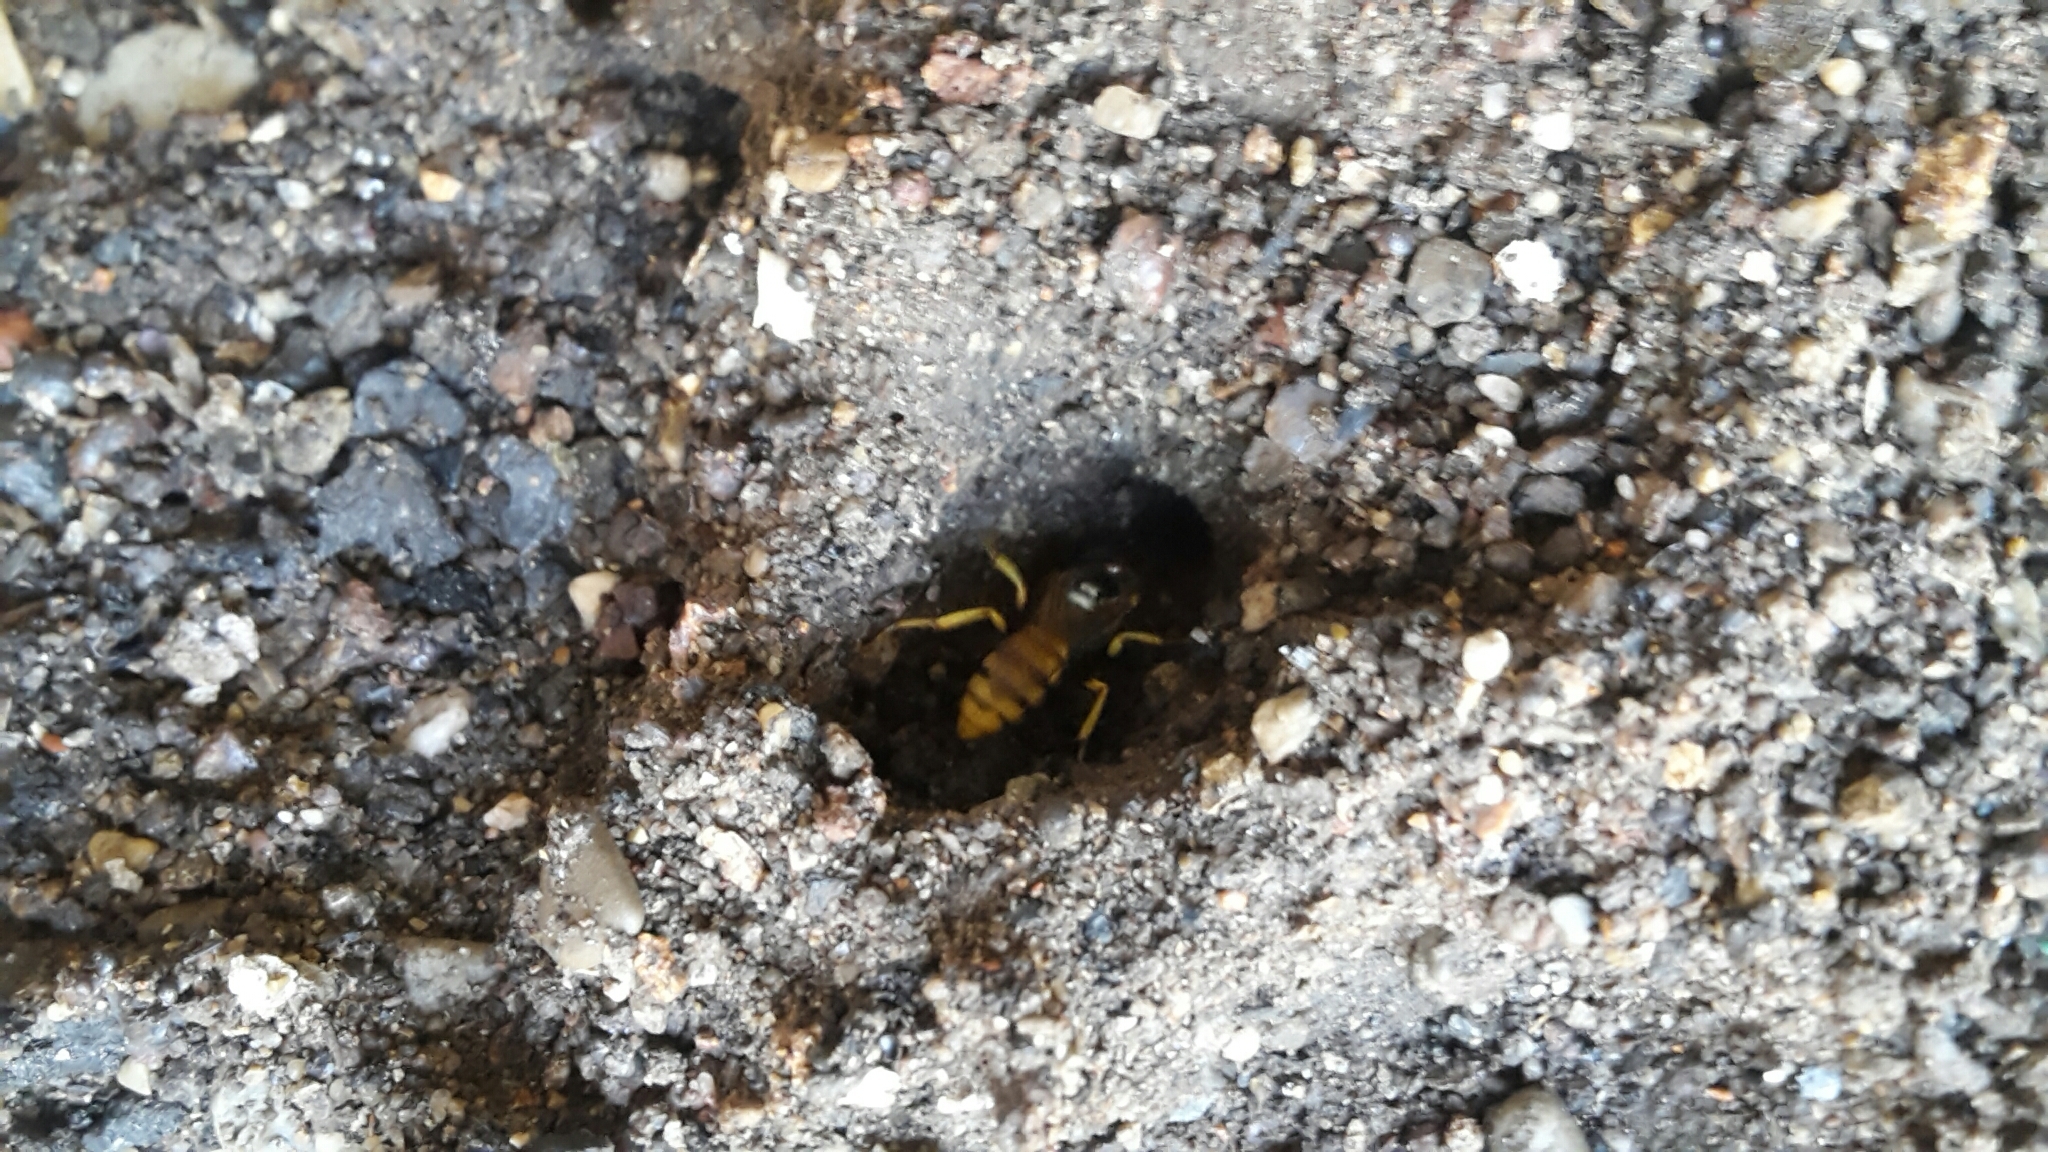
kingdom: Animalia
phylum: Arthropoda
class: Insecta
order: Hymenoptera
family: Crabronidae
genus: Philanthus
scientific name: Philanthus triangulum
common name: Bee wolf
